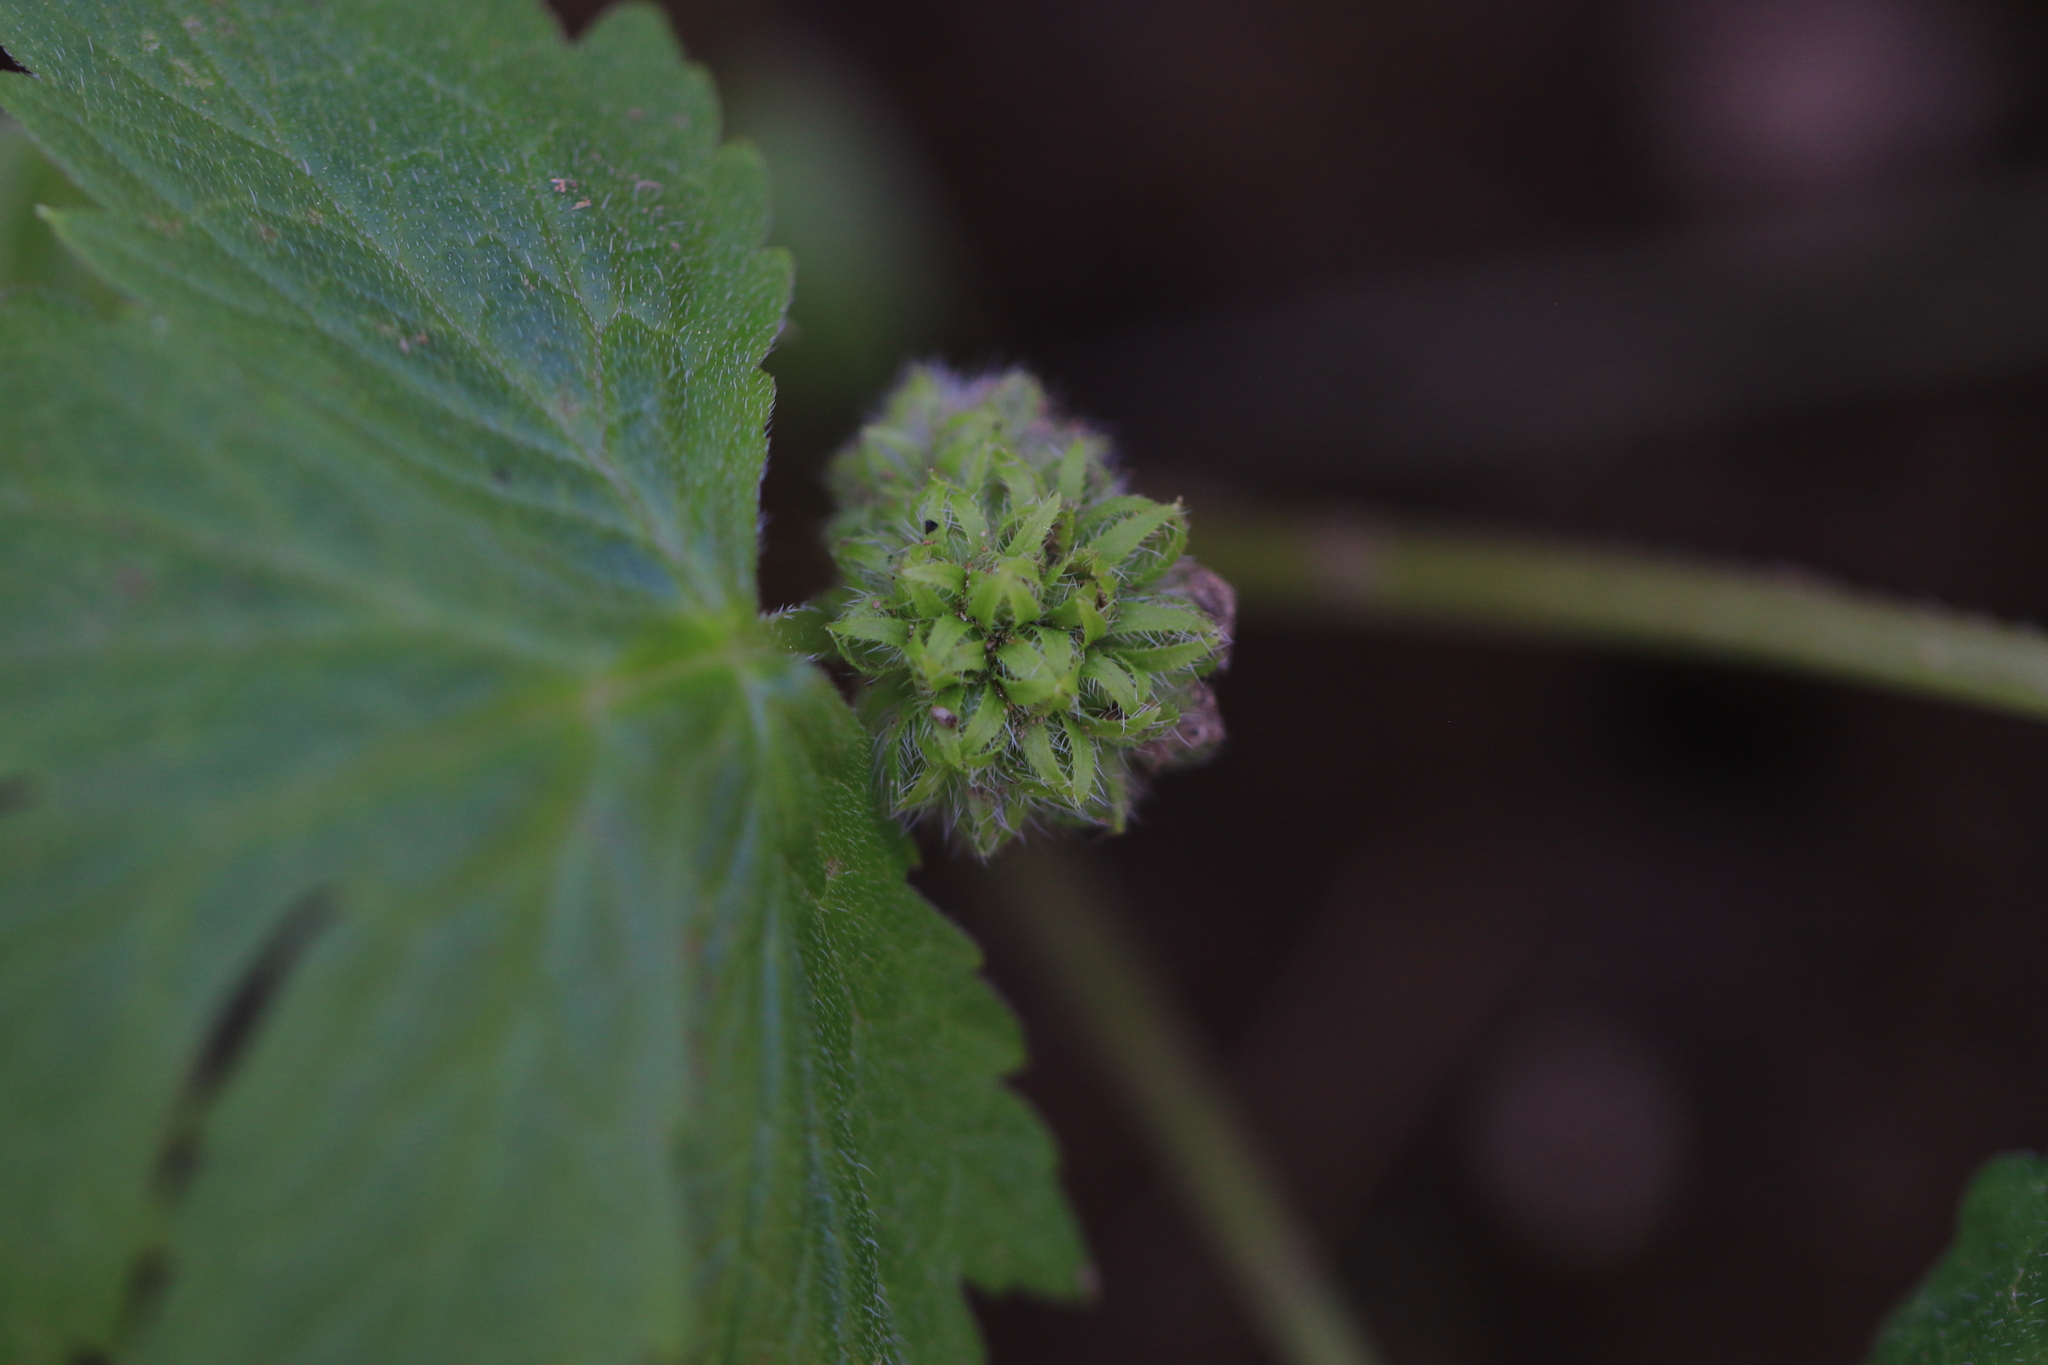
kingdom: Plantae
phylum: Tracheophyta
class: Magnoliopsida
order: Boraginales
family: Hydrophyllaceae
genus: Hydrophyllum
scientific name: Hydrophyllum tenuipes
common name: Pacific waterleaf
